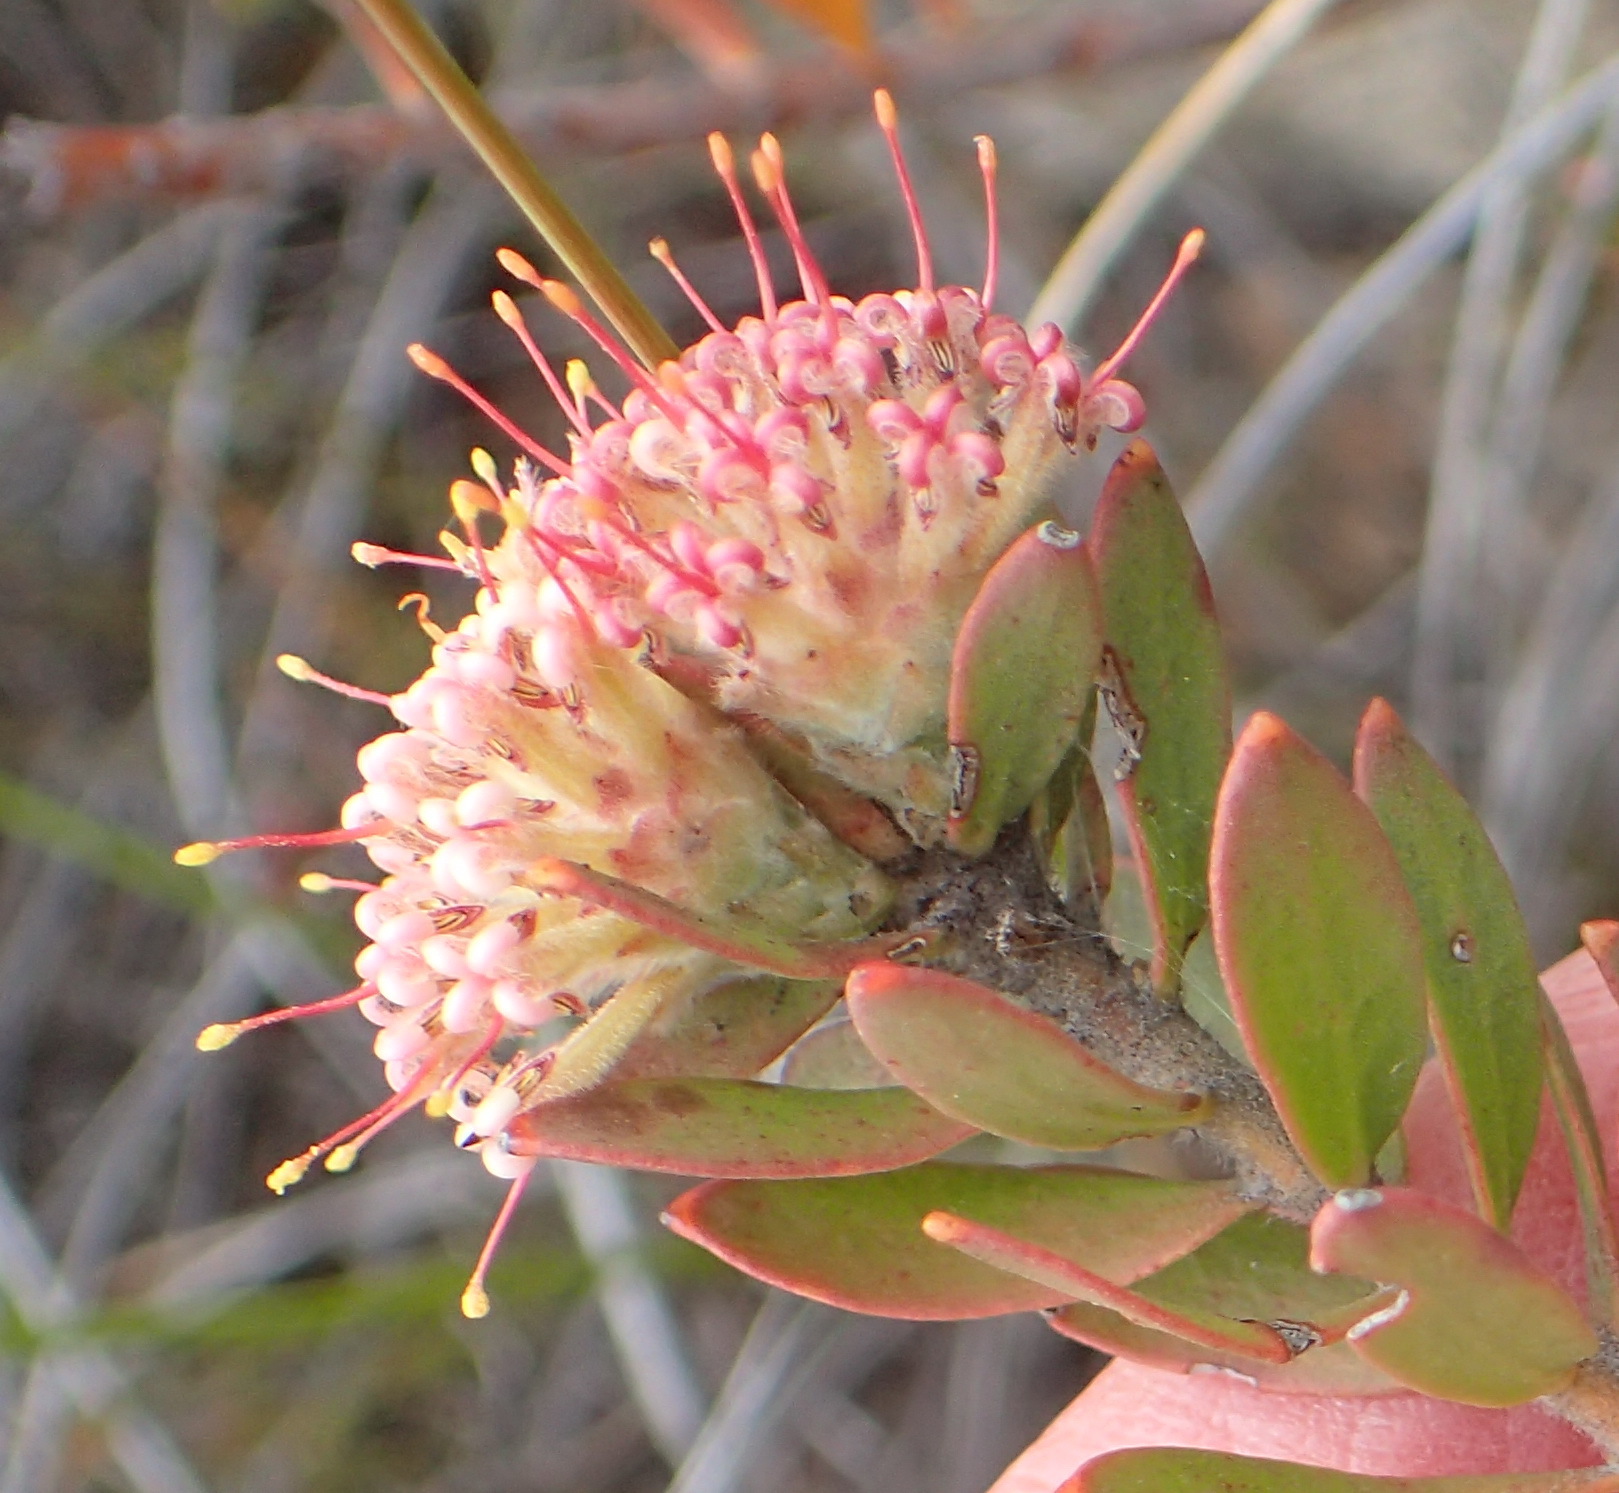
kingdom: Plantae
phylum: Tracheophyta
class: Magnoliopsida
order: Proteales
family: Proteaceae
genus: Leucospermum
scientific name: Leucospermum wittebergense
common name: Swartberg pincushion
